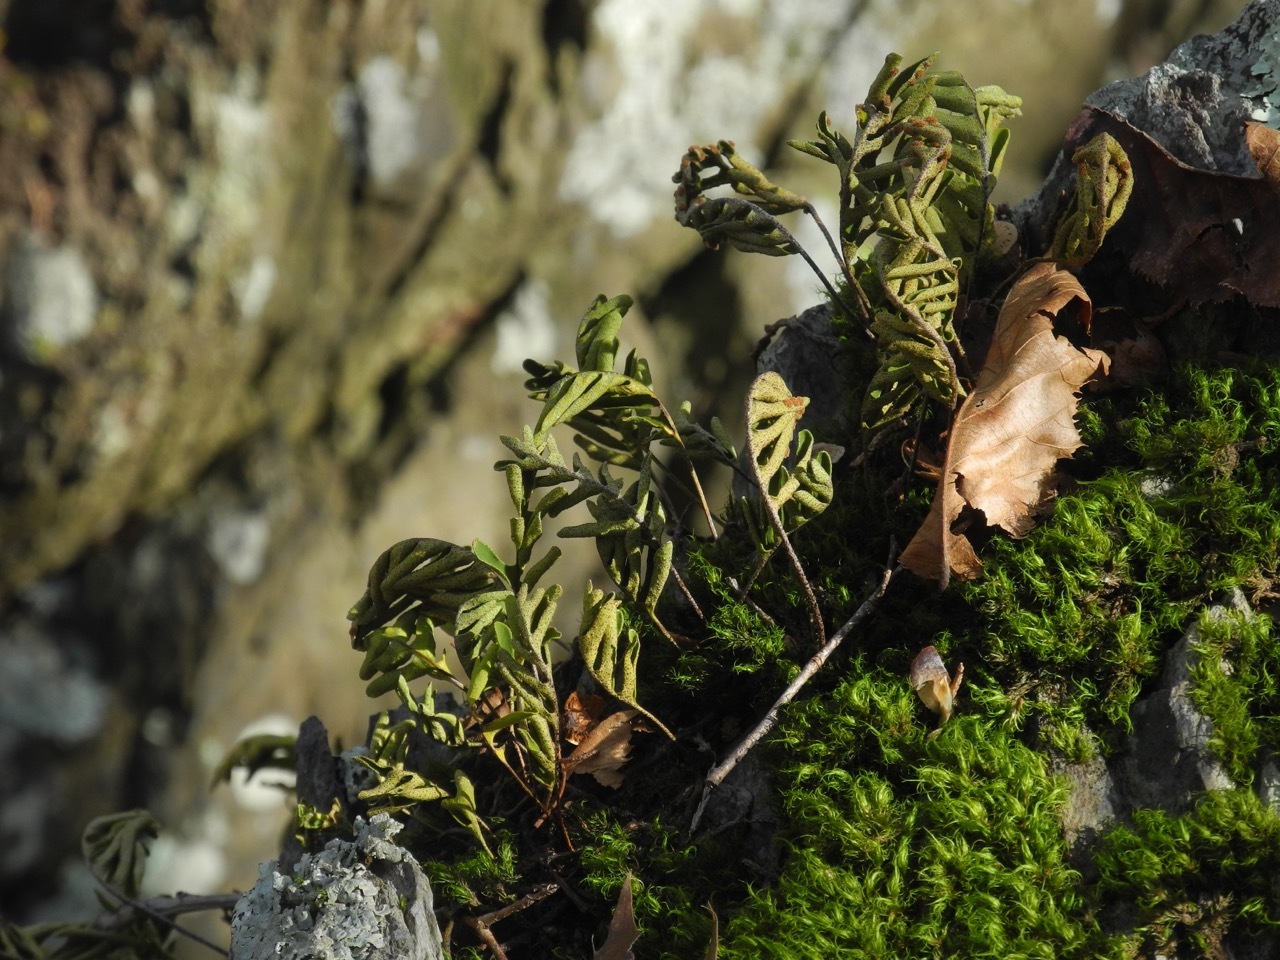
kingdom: Plantae
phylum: Tracheophyta
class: Polypodiopsida
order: Polypodiales
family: Polypodiaceae
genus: Pleopeltis
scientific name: Pleopeltis michauxiana
